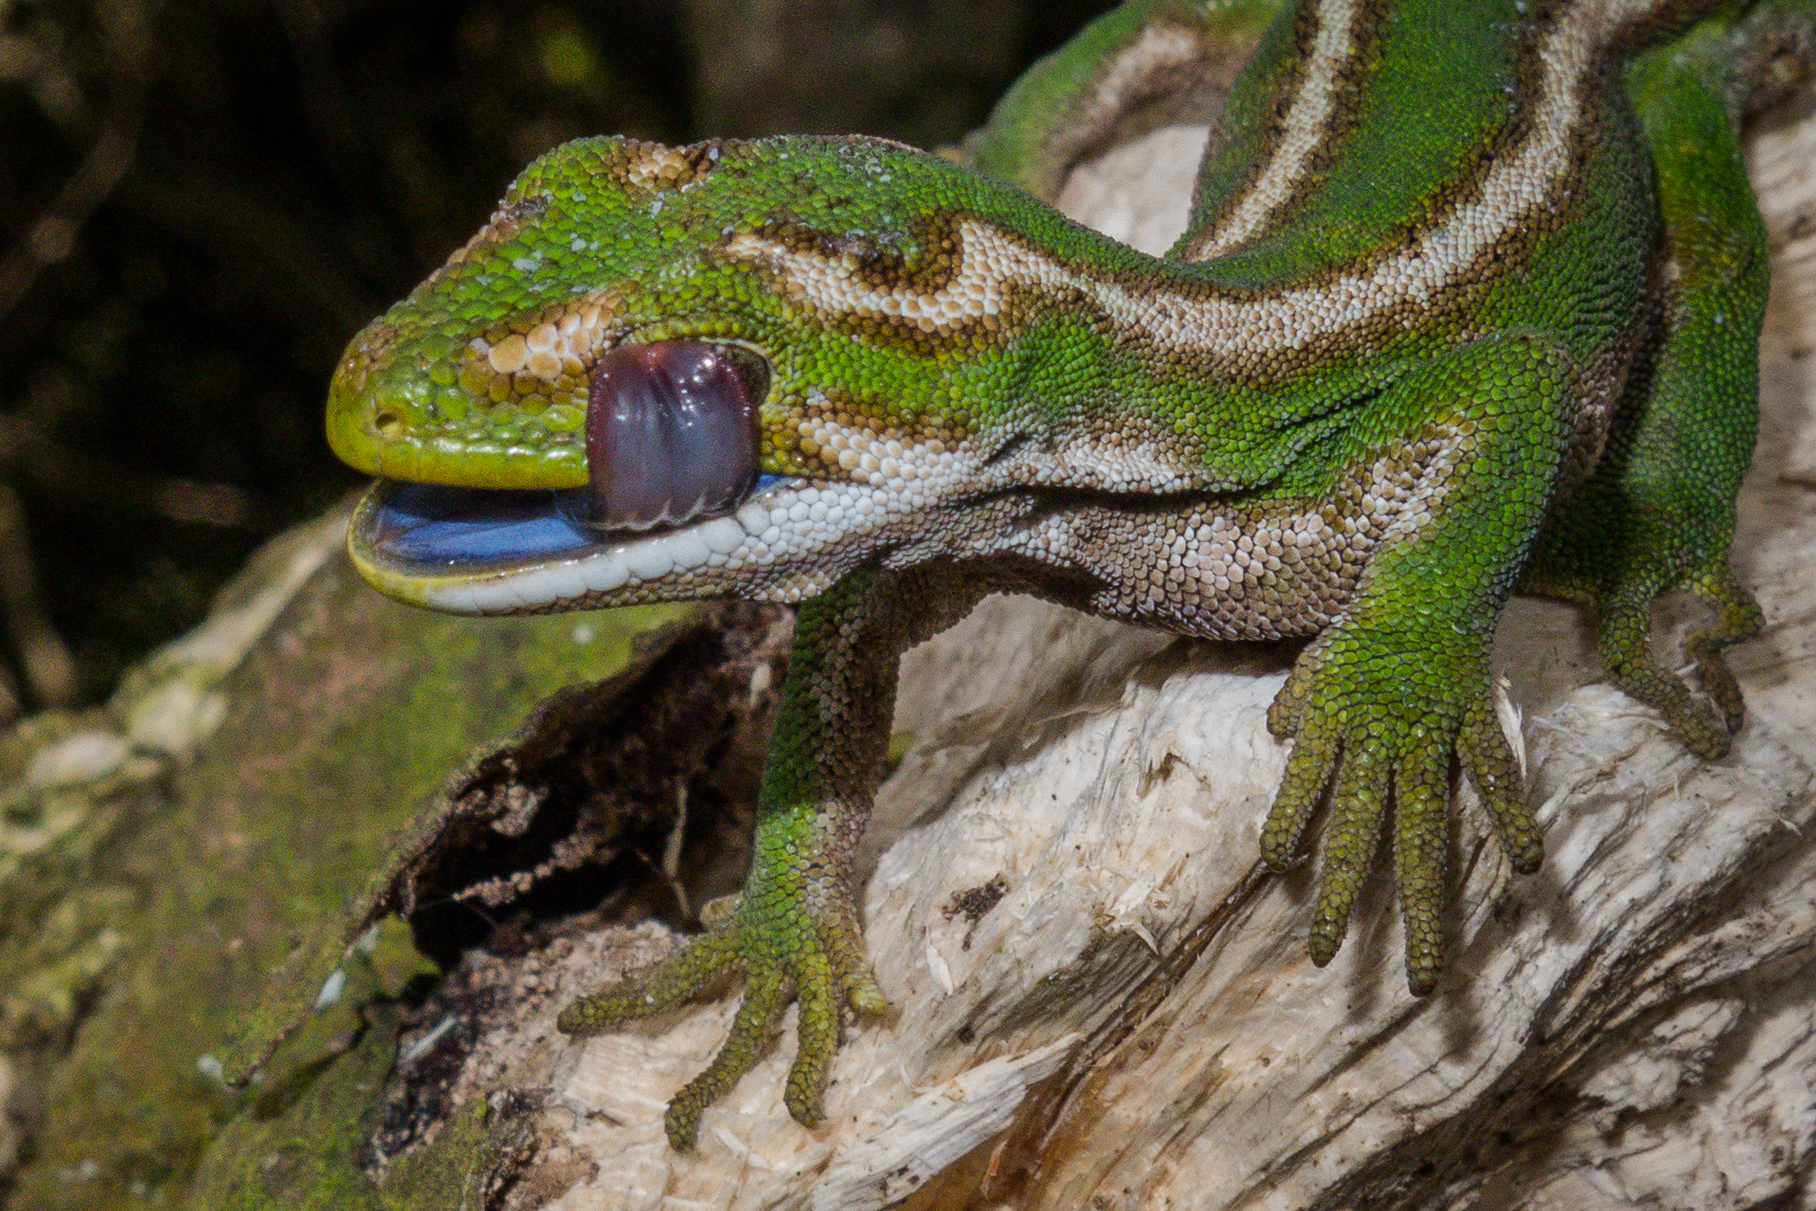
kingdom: Animalia
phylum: Chordata
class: Squamata
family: Diplodactylidae
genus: Naultinus
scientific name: Naultinus gemmeus
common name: Jewelled gecko
